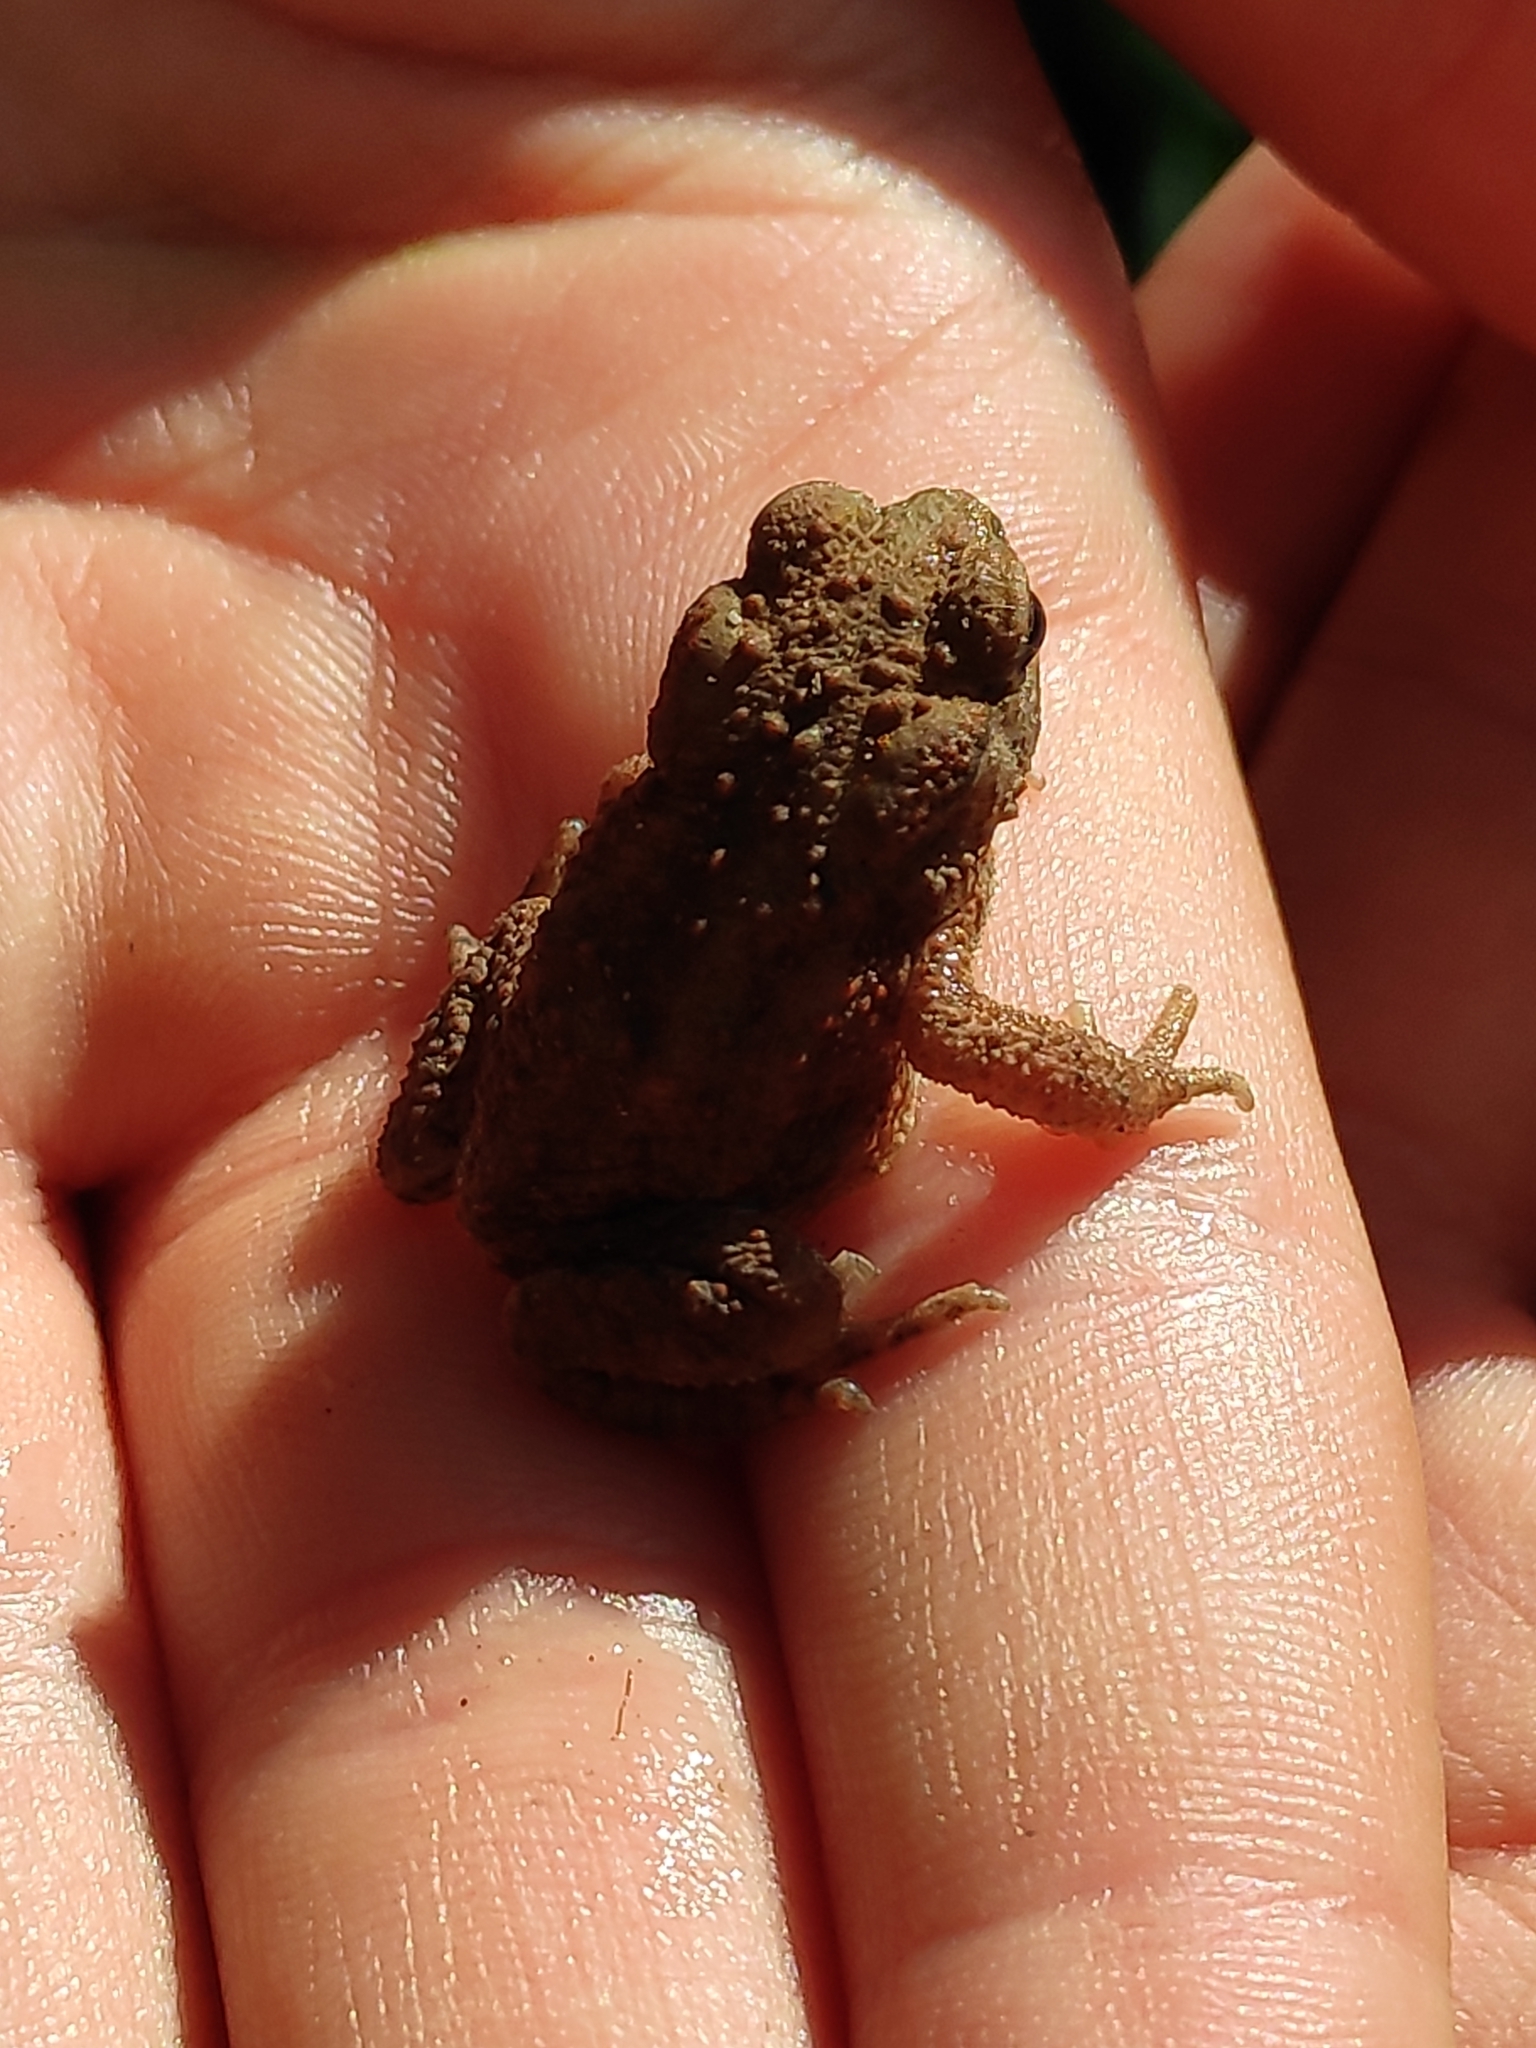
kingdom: Animalia
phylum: Chordata
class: Amphibia
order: Anura
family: Bufonidae
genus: Bufo
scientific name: Bufo bufo
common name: Common toad
